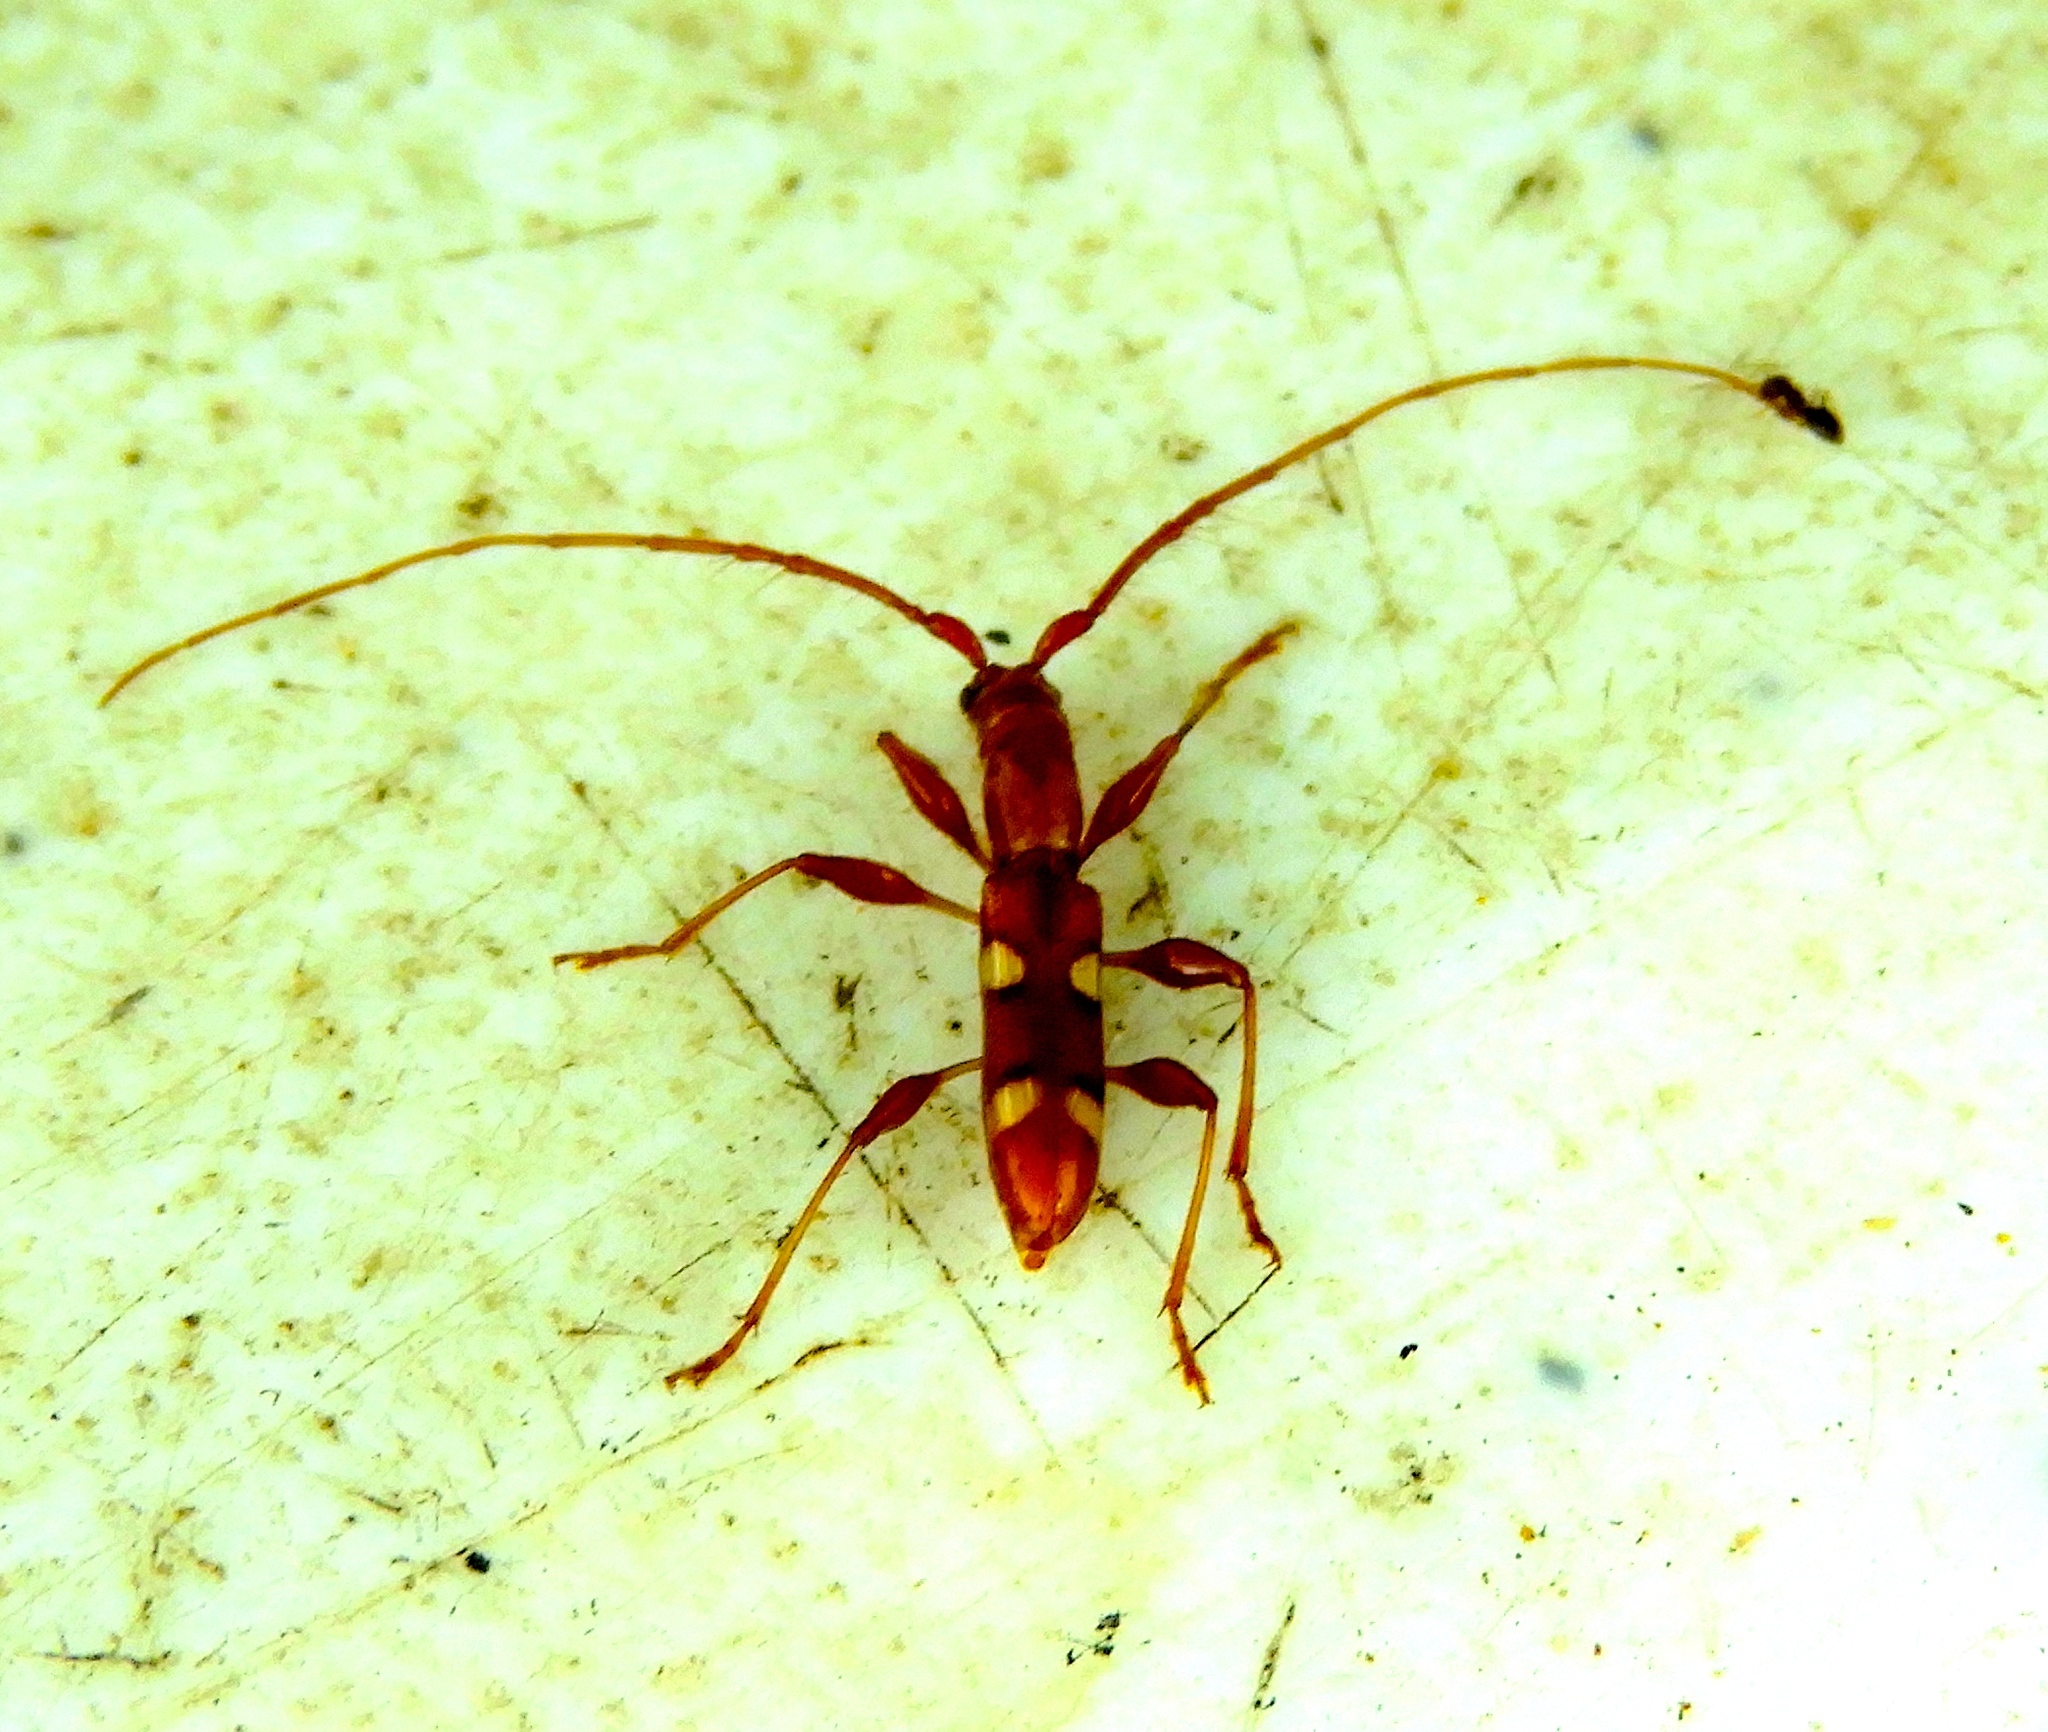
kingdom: Animalia
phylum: Arthropoda
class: Insecta
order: Coleoptera
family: Cerambycidae
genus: Neocompsa
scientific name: Neocompsa macroscina
